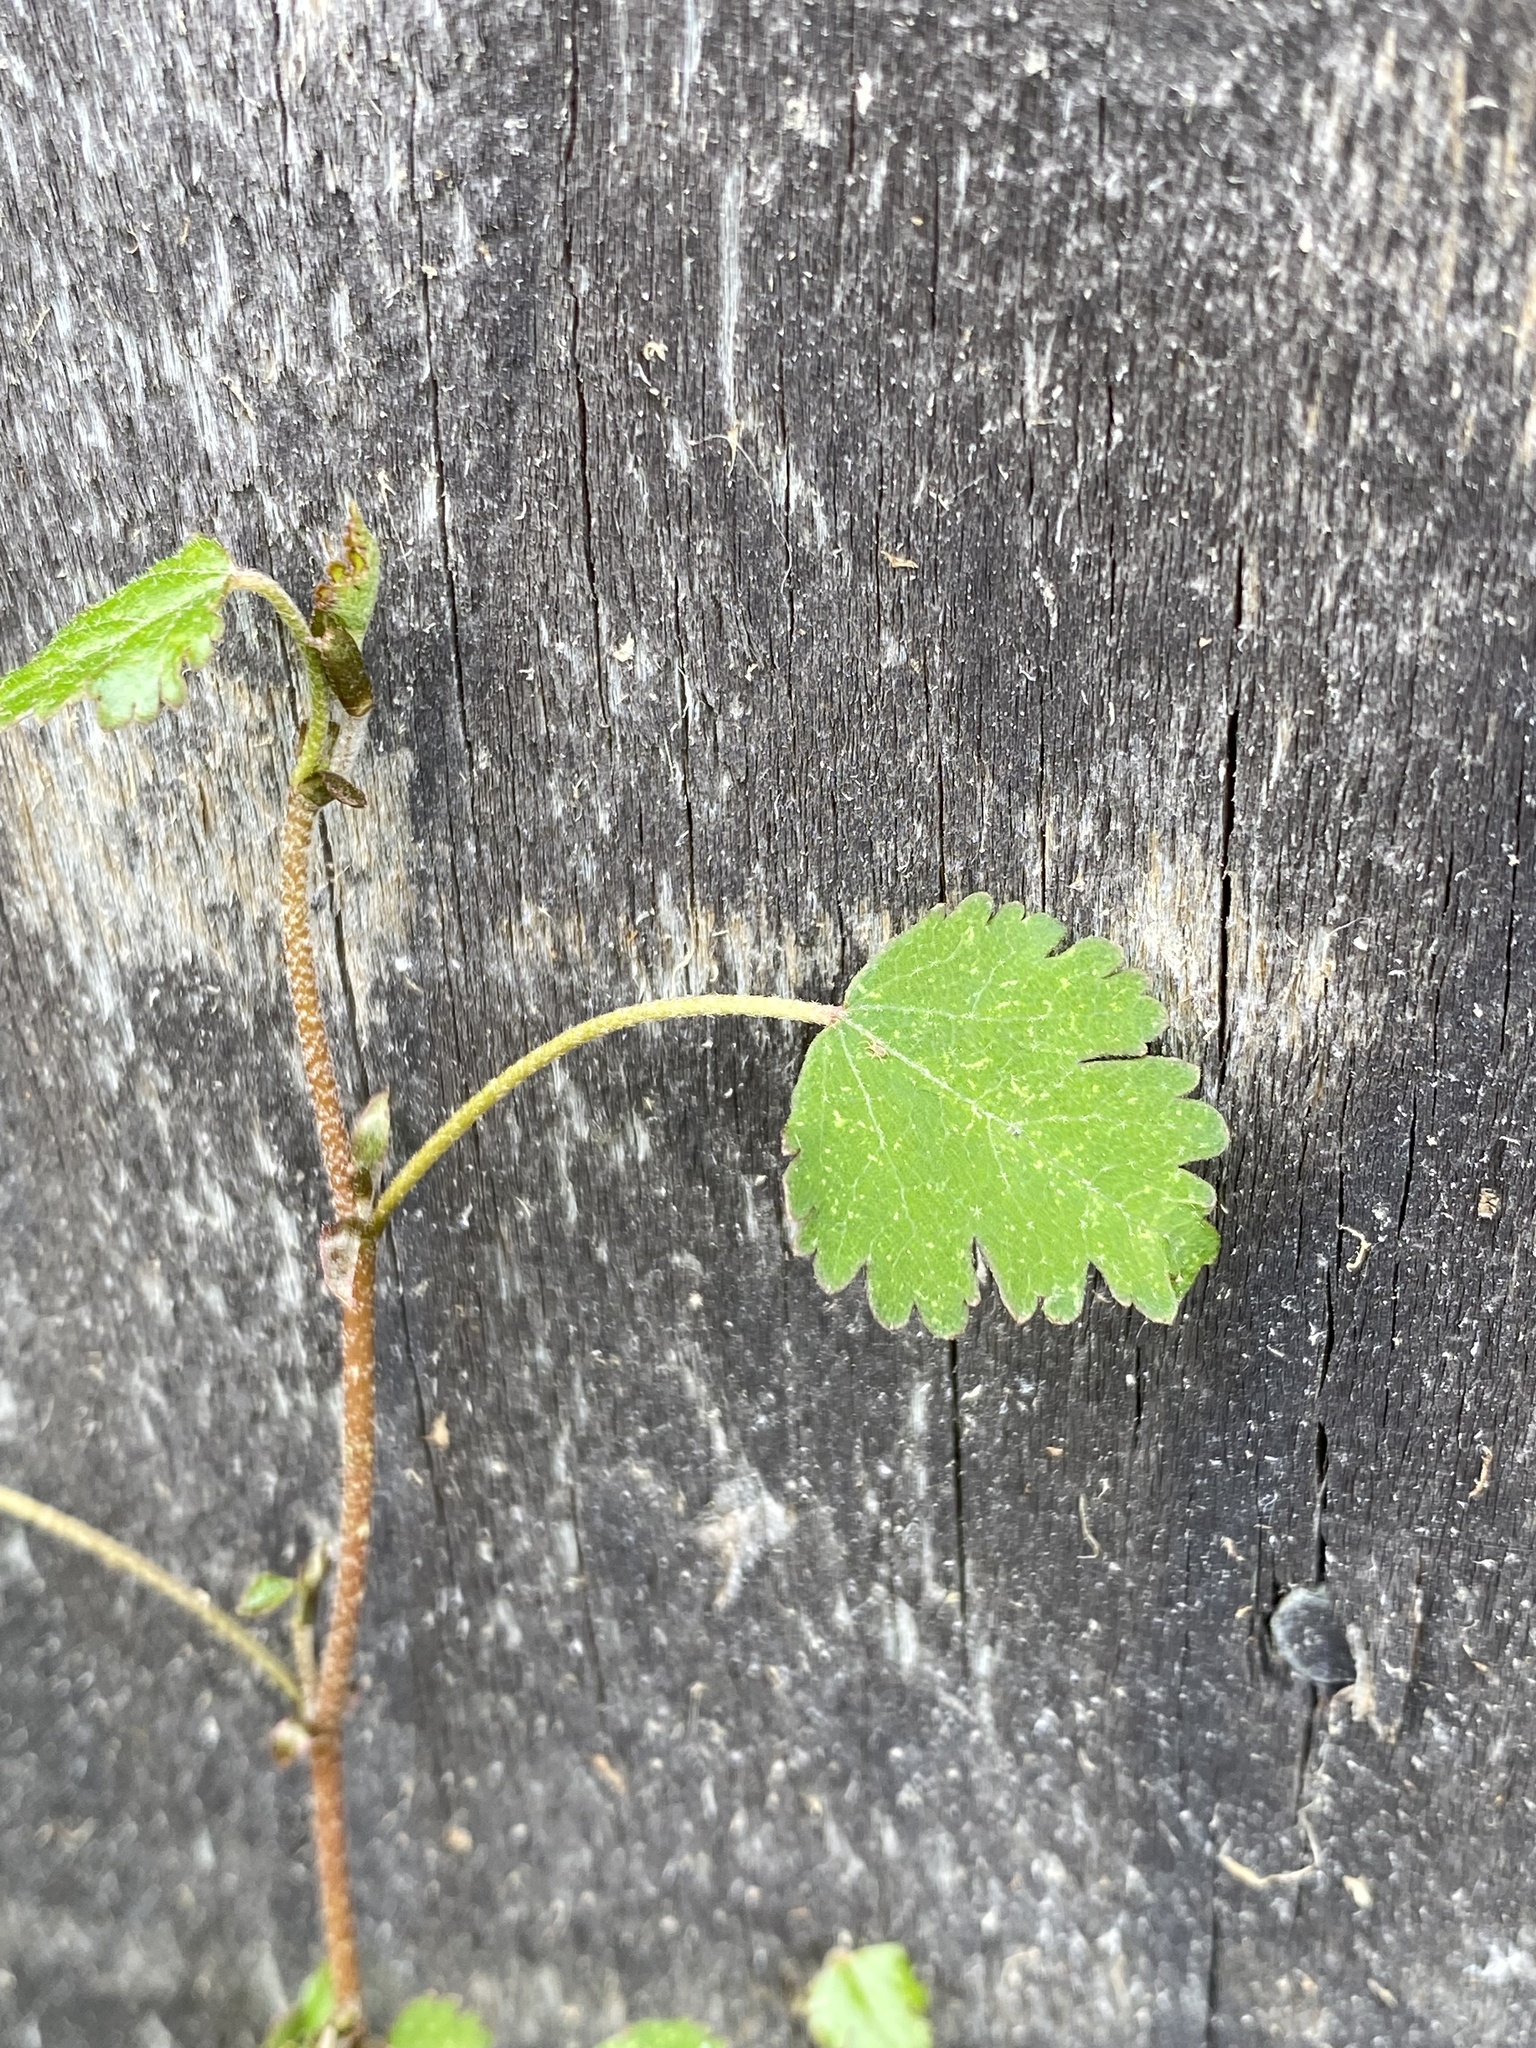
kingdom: Plantae
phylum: Tracheophyta
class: Magnoliopsida
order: Malvales
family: Malvaceae
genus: Plagianthus
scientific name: Plagianthus regius
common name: Manatu
